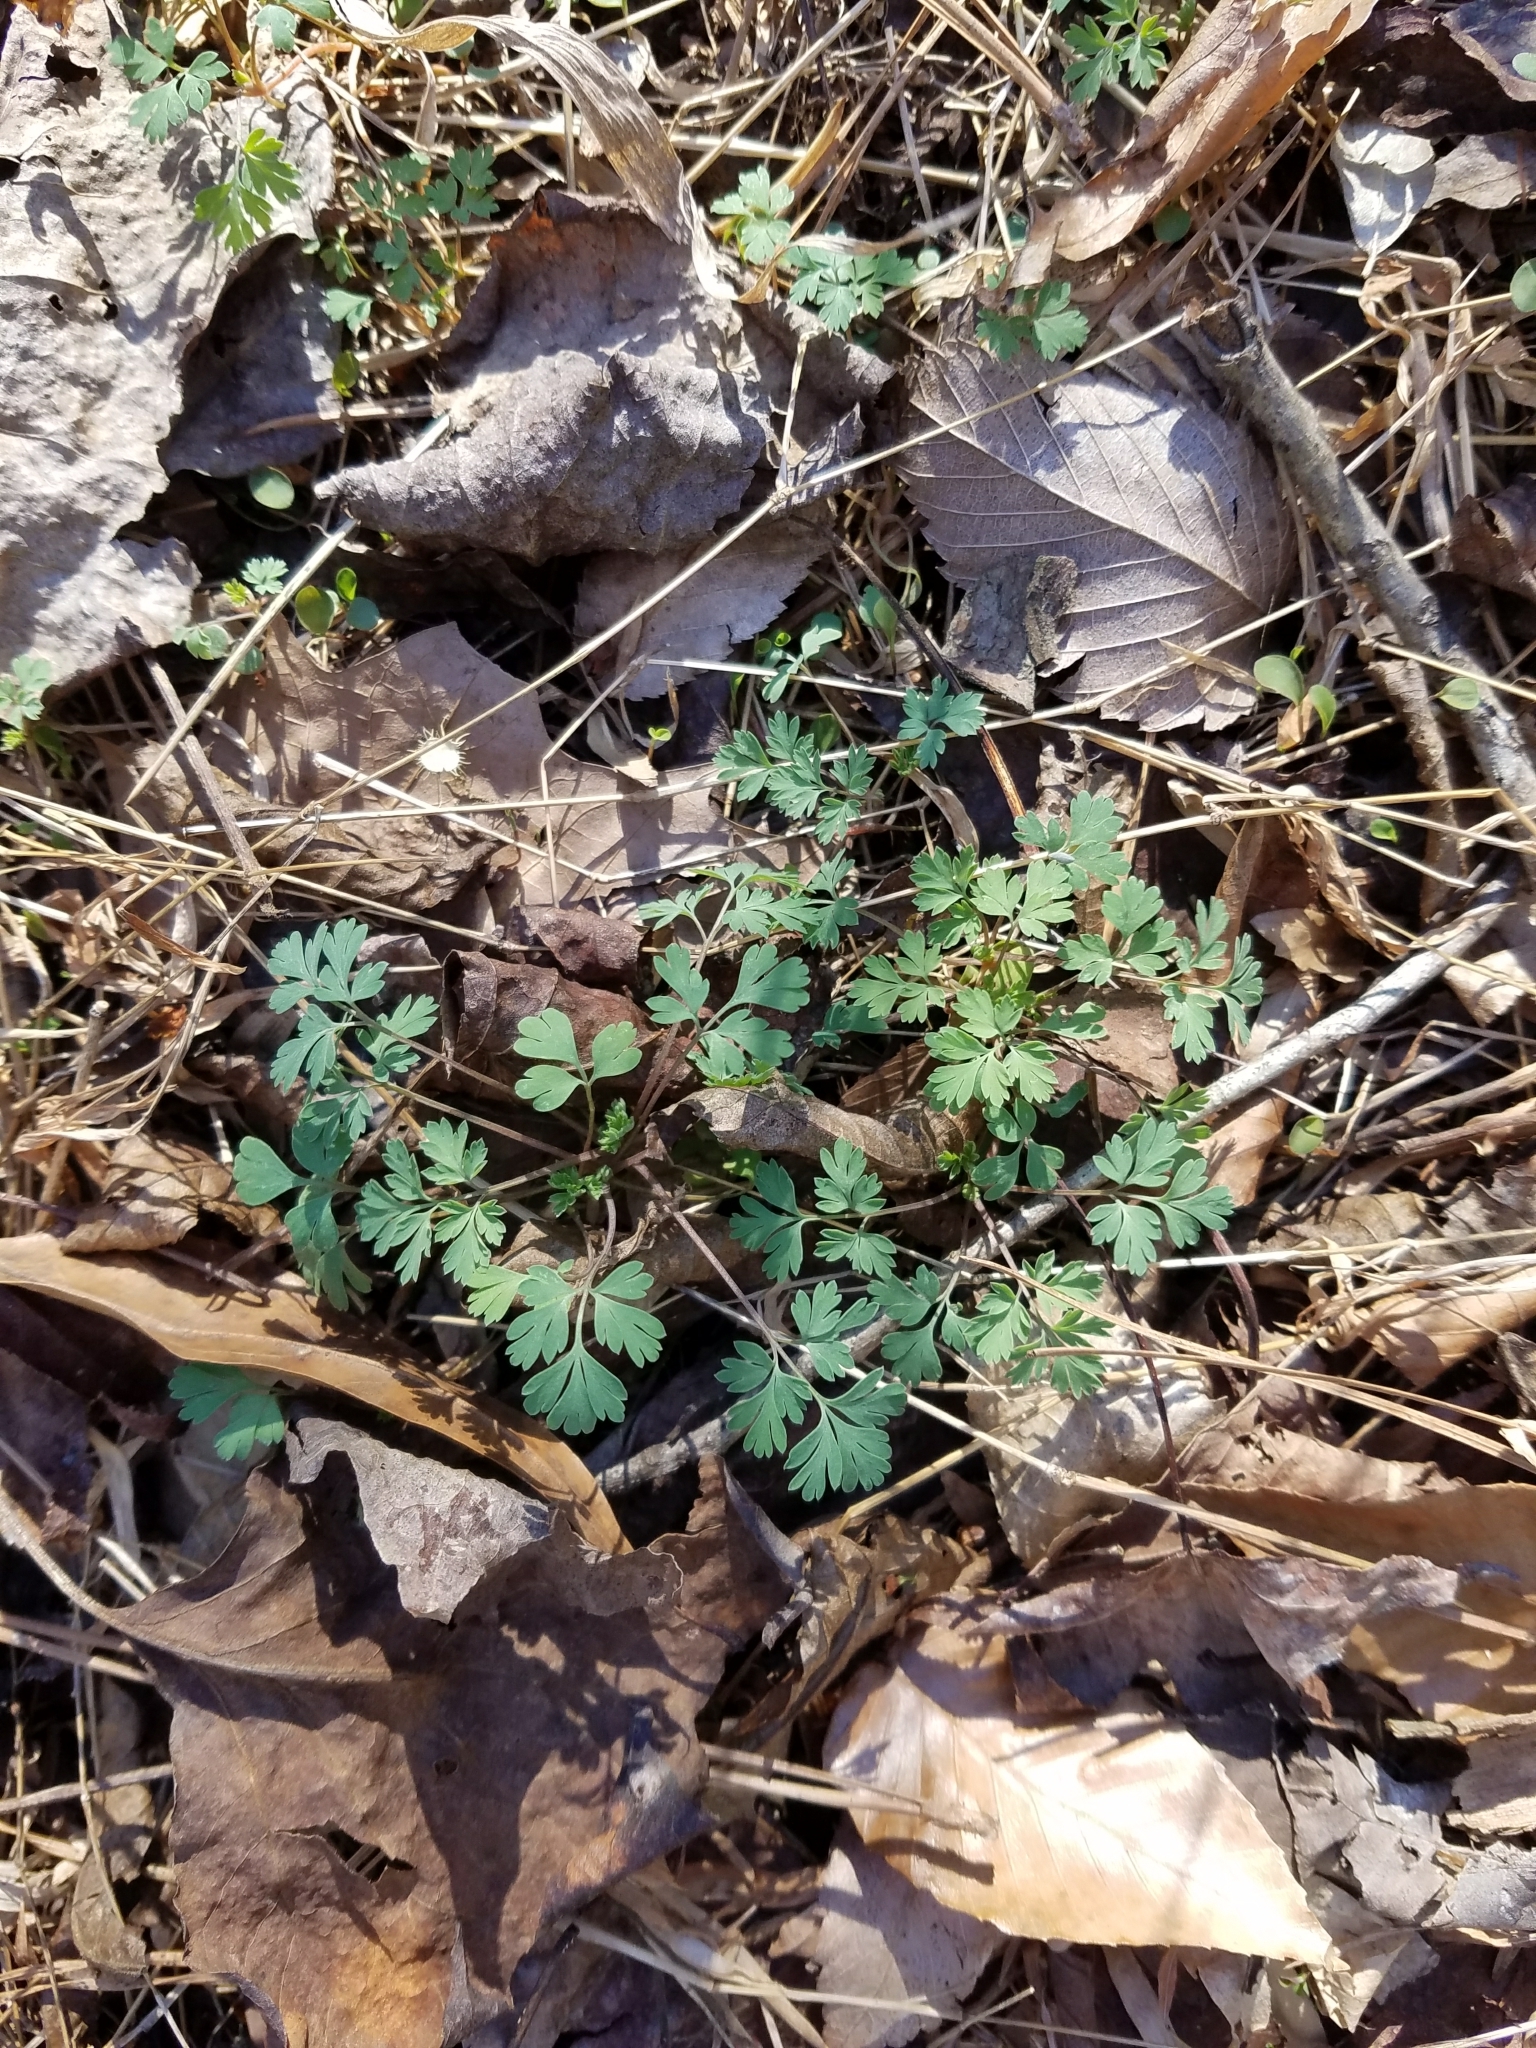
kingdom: Plantae
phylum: Tracheophyta
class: Magnoliopsida
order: Ranunculales
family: Papaveraceae
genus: Corydalis
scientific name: Corydalis flavula
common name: Yellow corydalis
